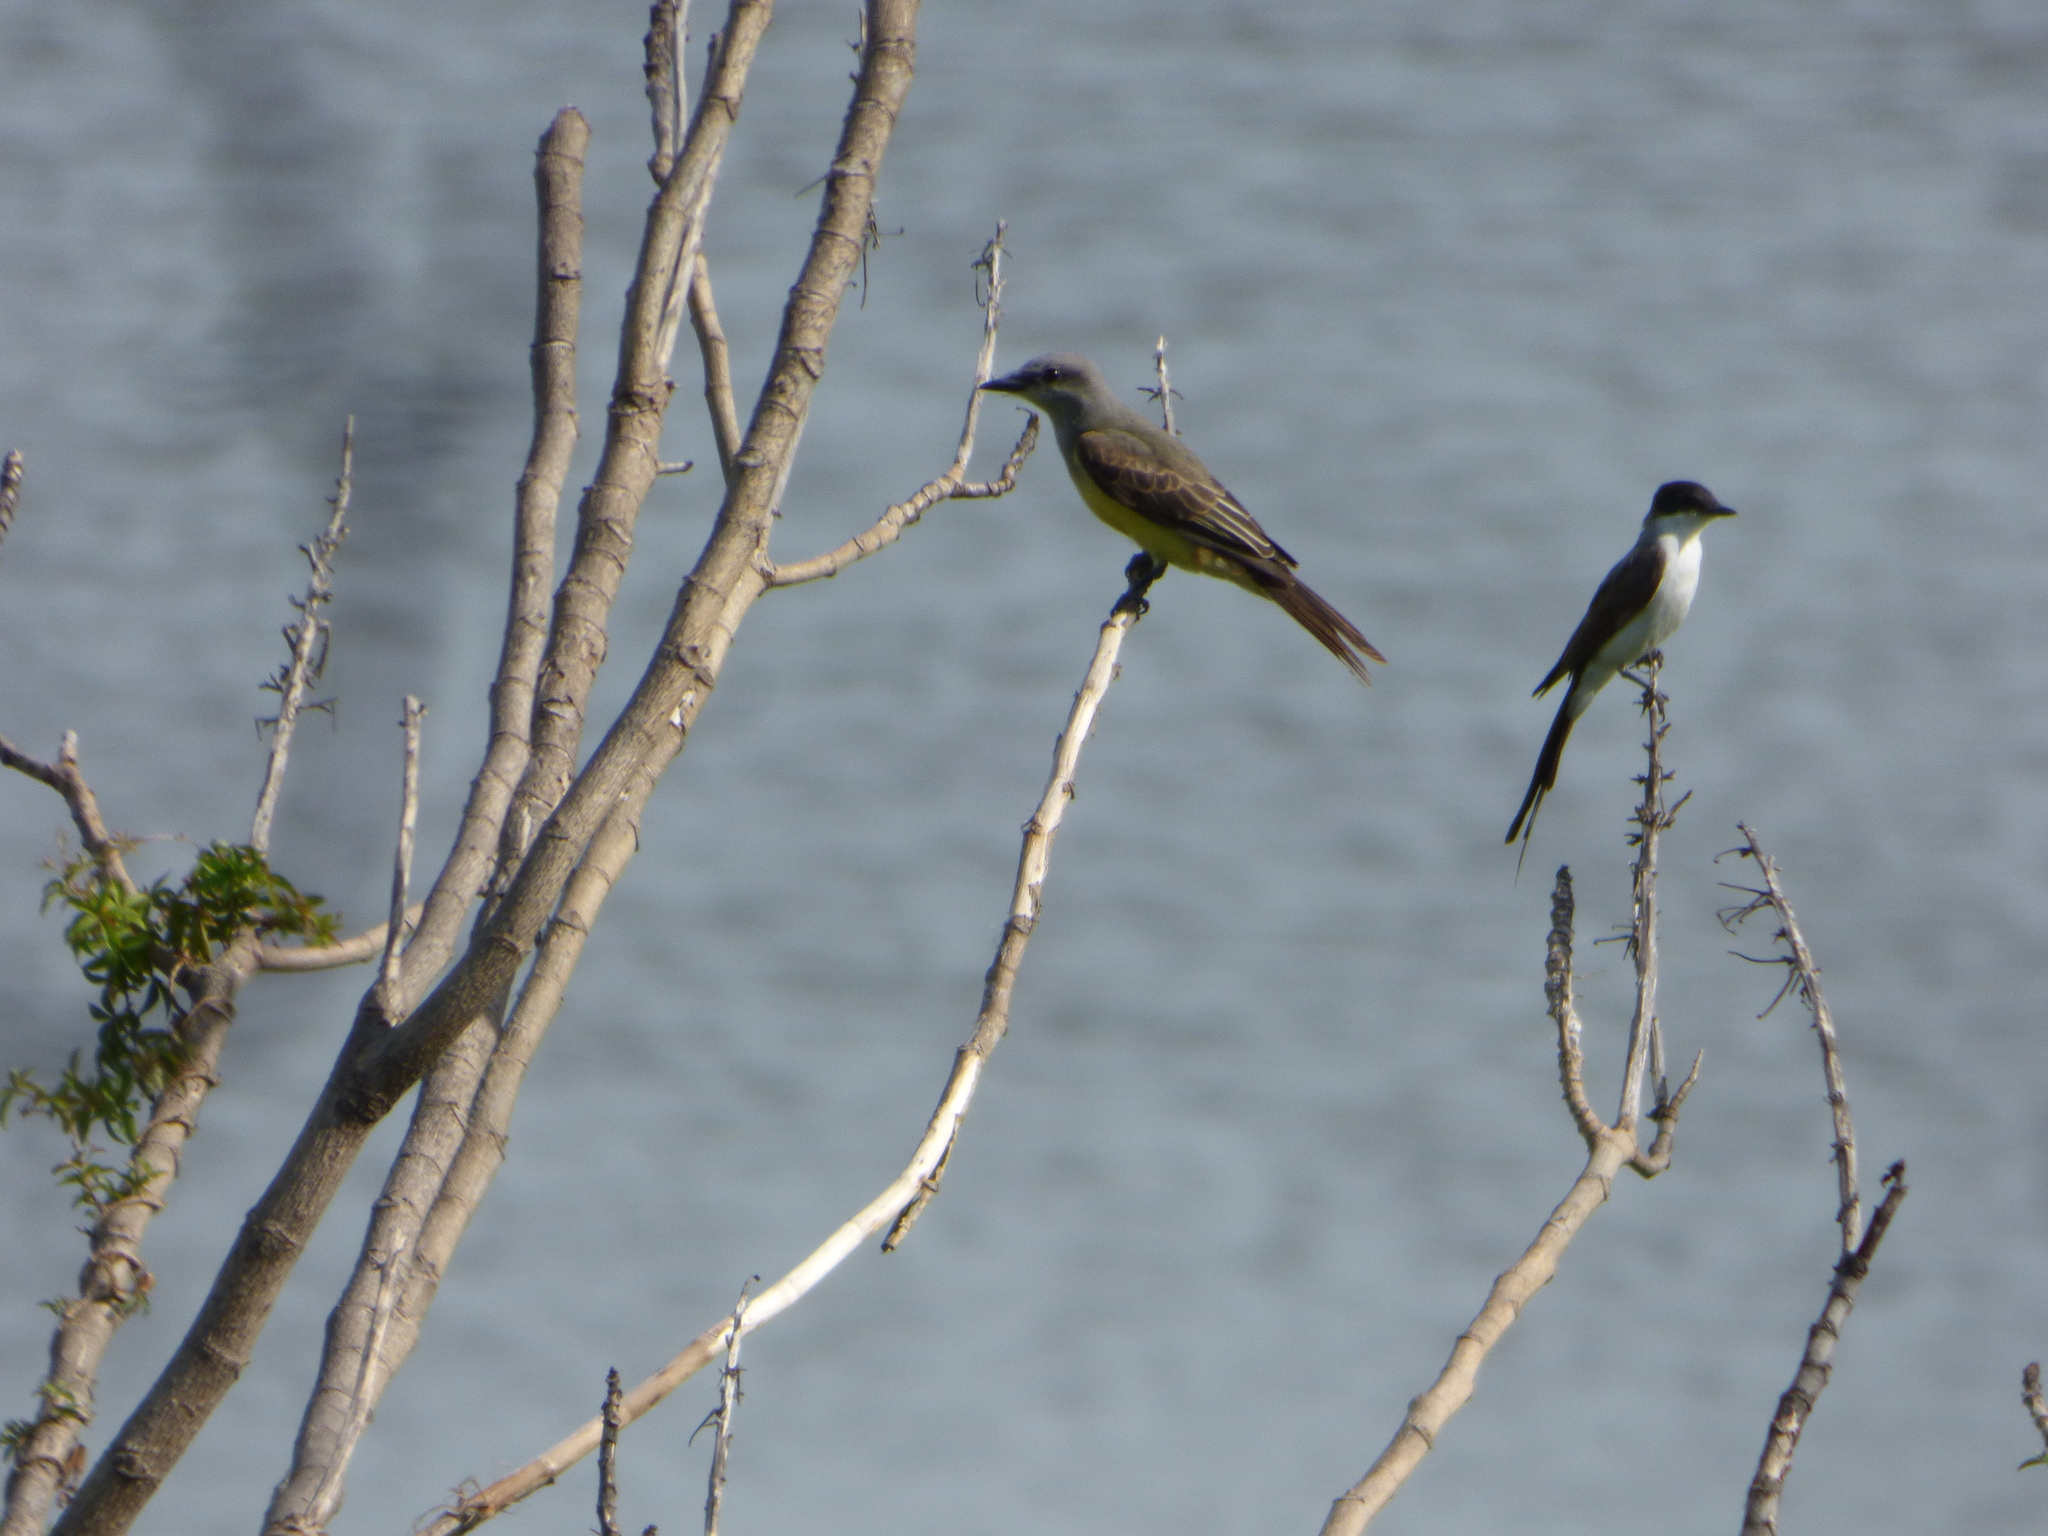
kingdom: Animalia
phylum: Chordata
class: Aves
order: Passeriformes
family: Tyrannidae
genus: Tyrannus
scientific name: Tyrannus savana
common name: Fork-tailed flycatcher
